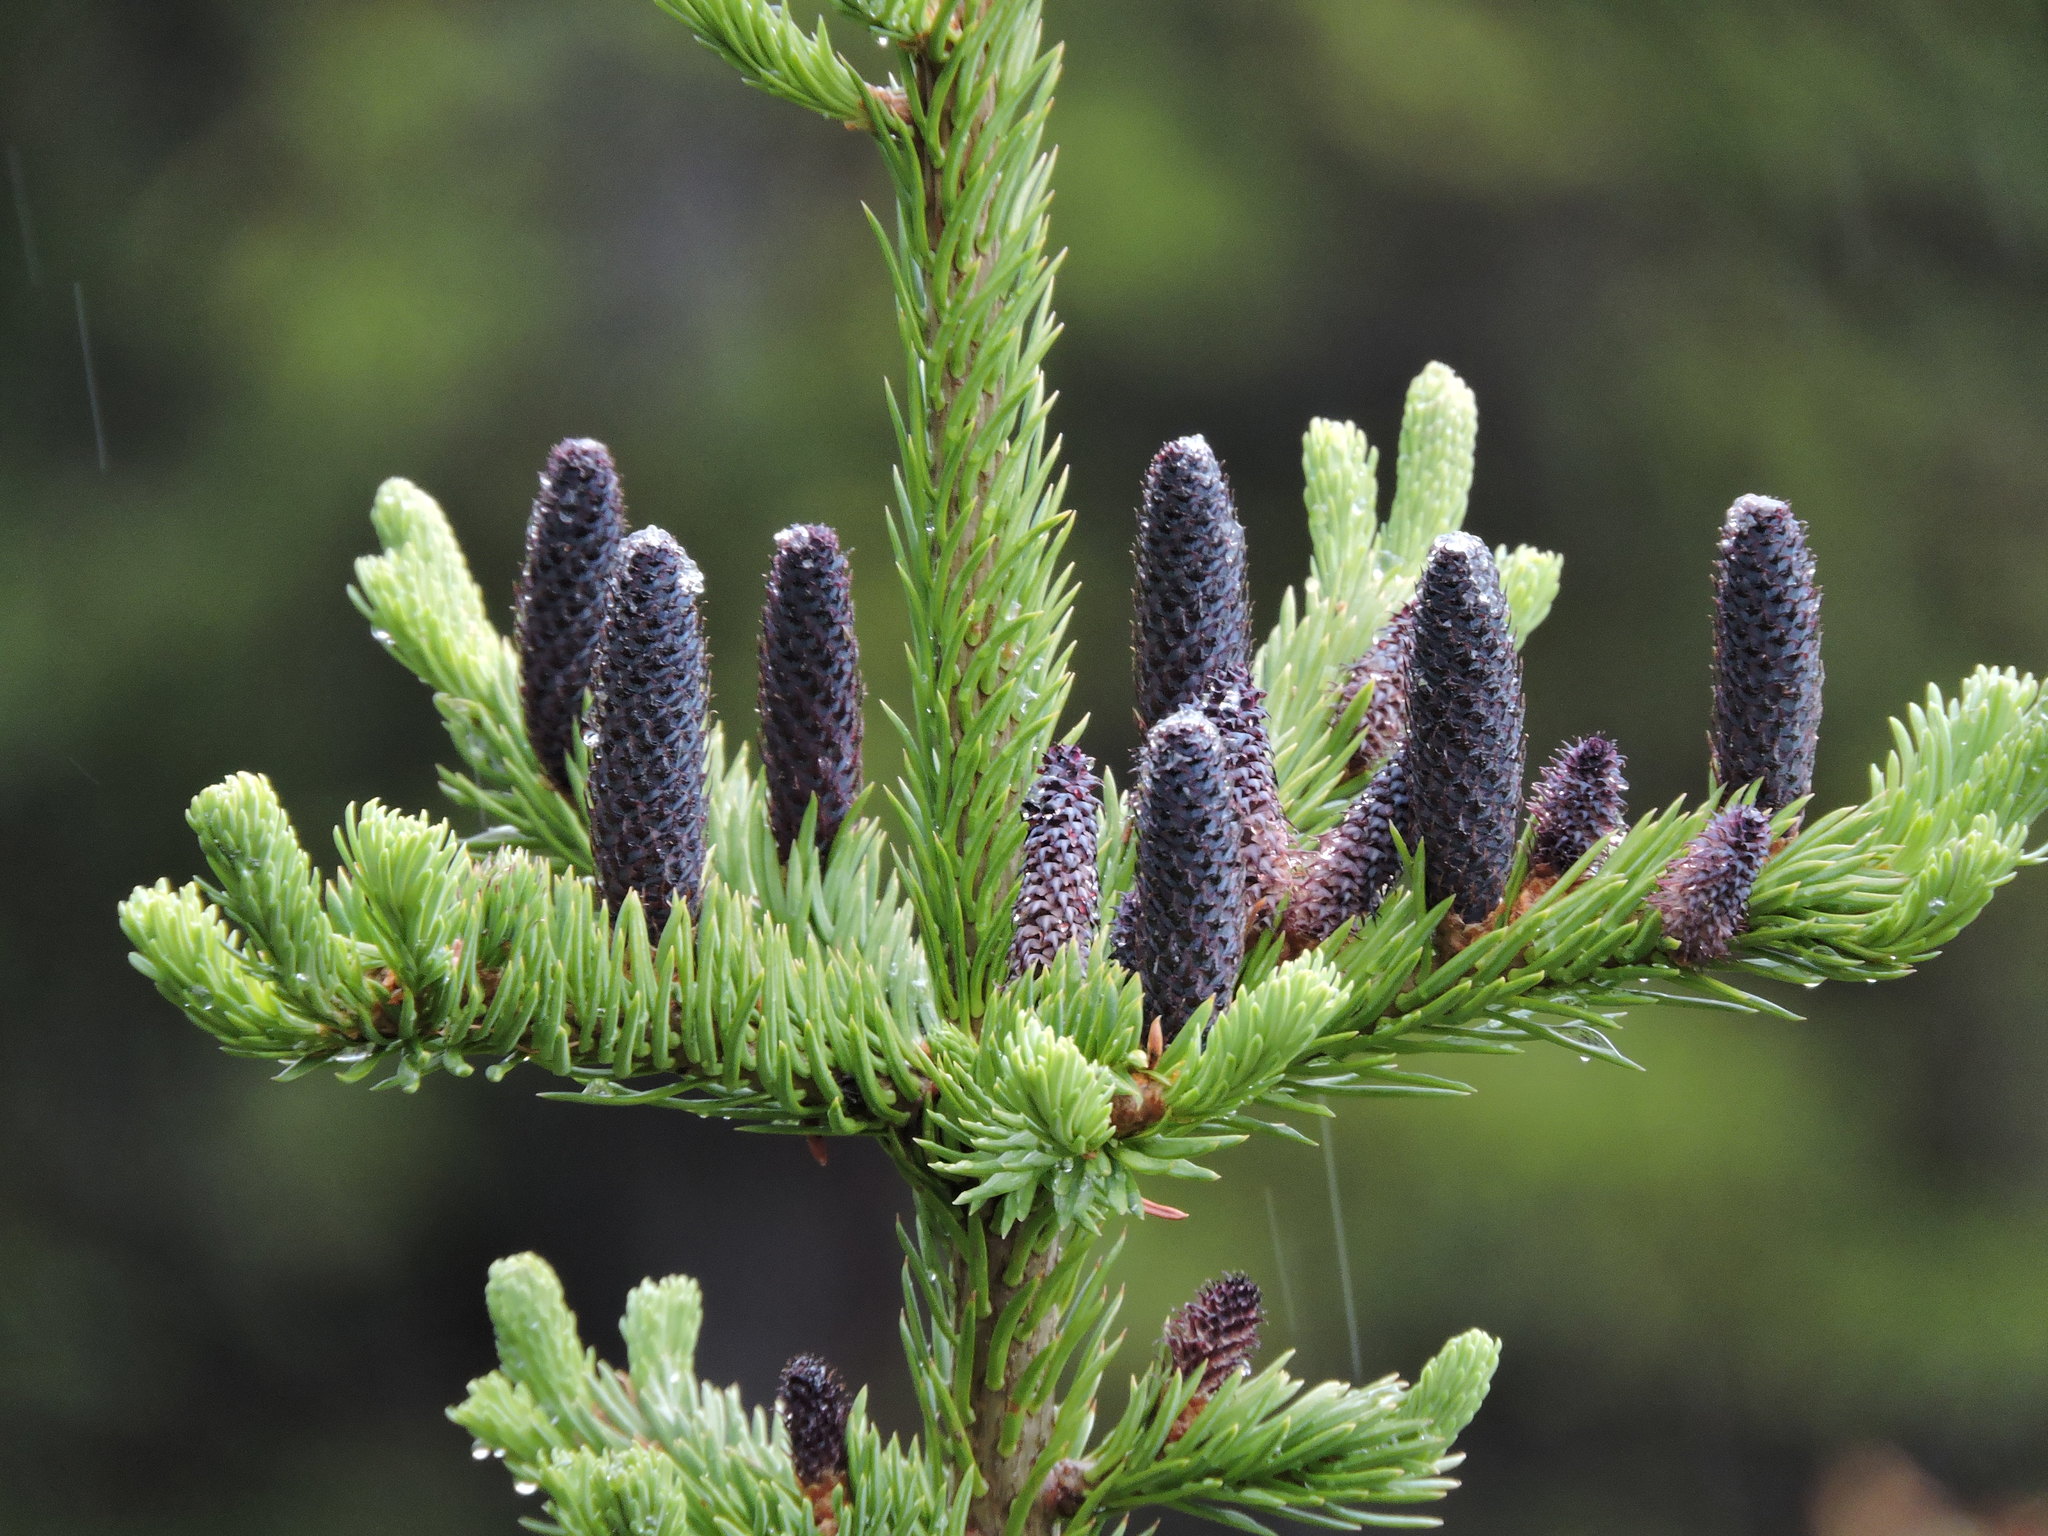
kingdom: Plantae
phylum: Tracheophyta
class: Pinopsida
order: Pinales
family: Pinaceae
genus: Abies
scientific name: Abies lasiocarpa
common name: Subalpine fir
